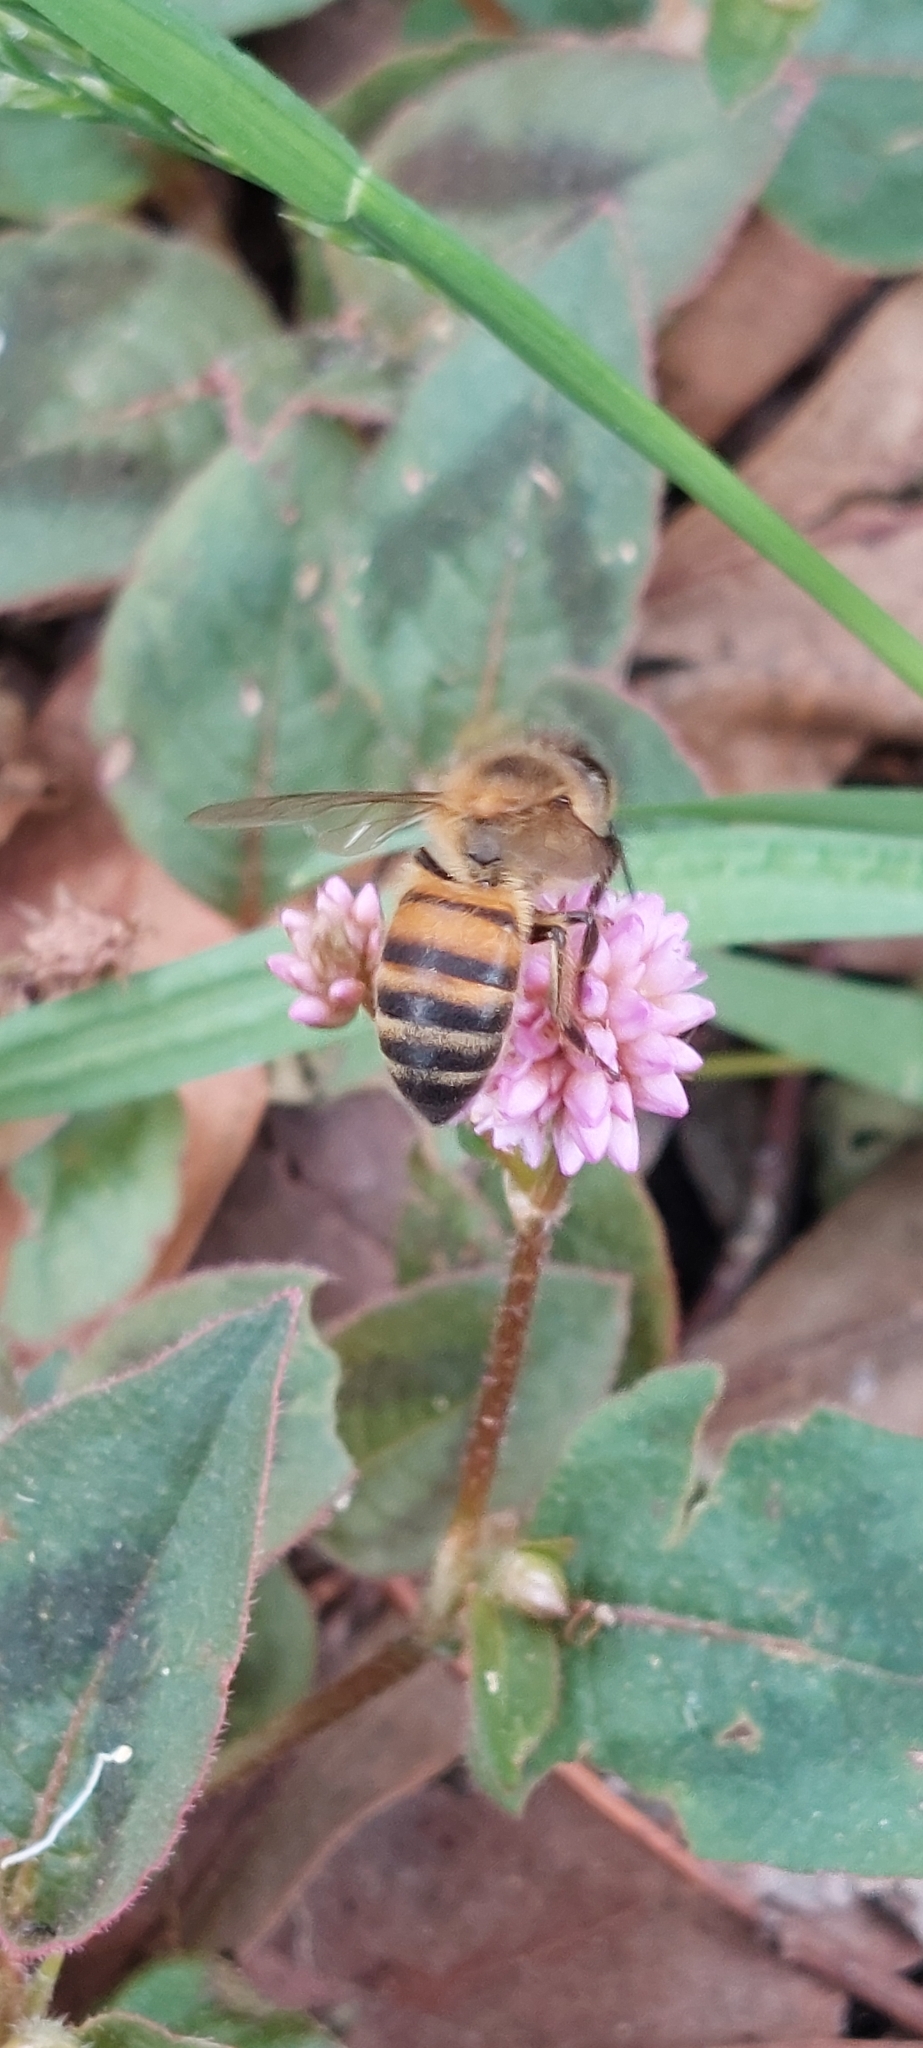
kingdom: Animalia
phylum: Arthropoda
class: Insecta
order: Hymenoptera
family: Apidae
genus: Apis
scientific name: Apis mellifera
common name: Honey bee
